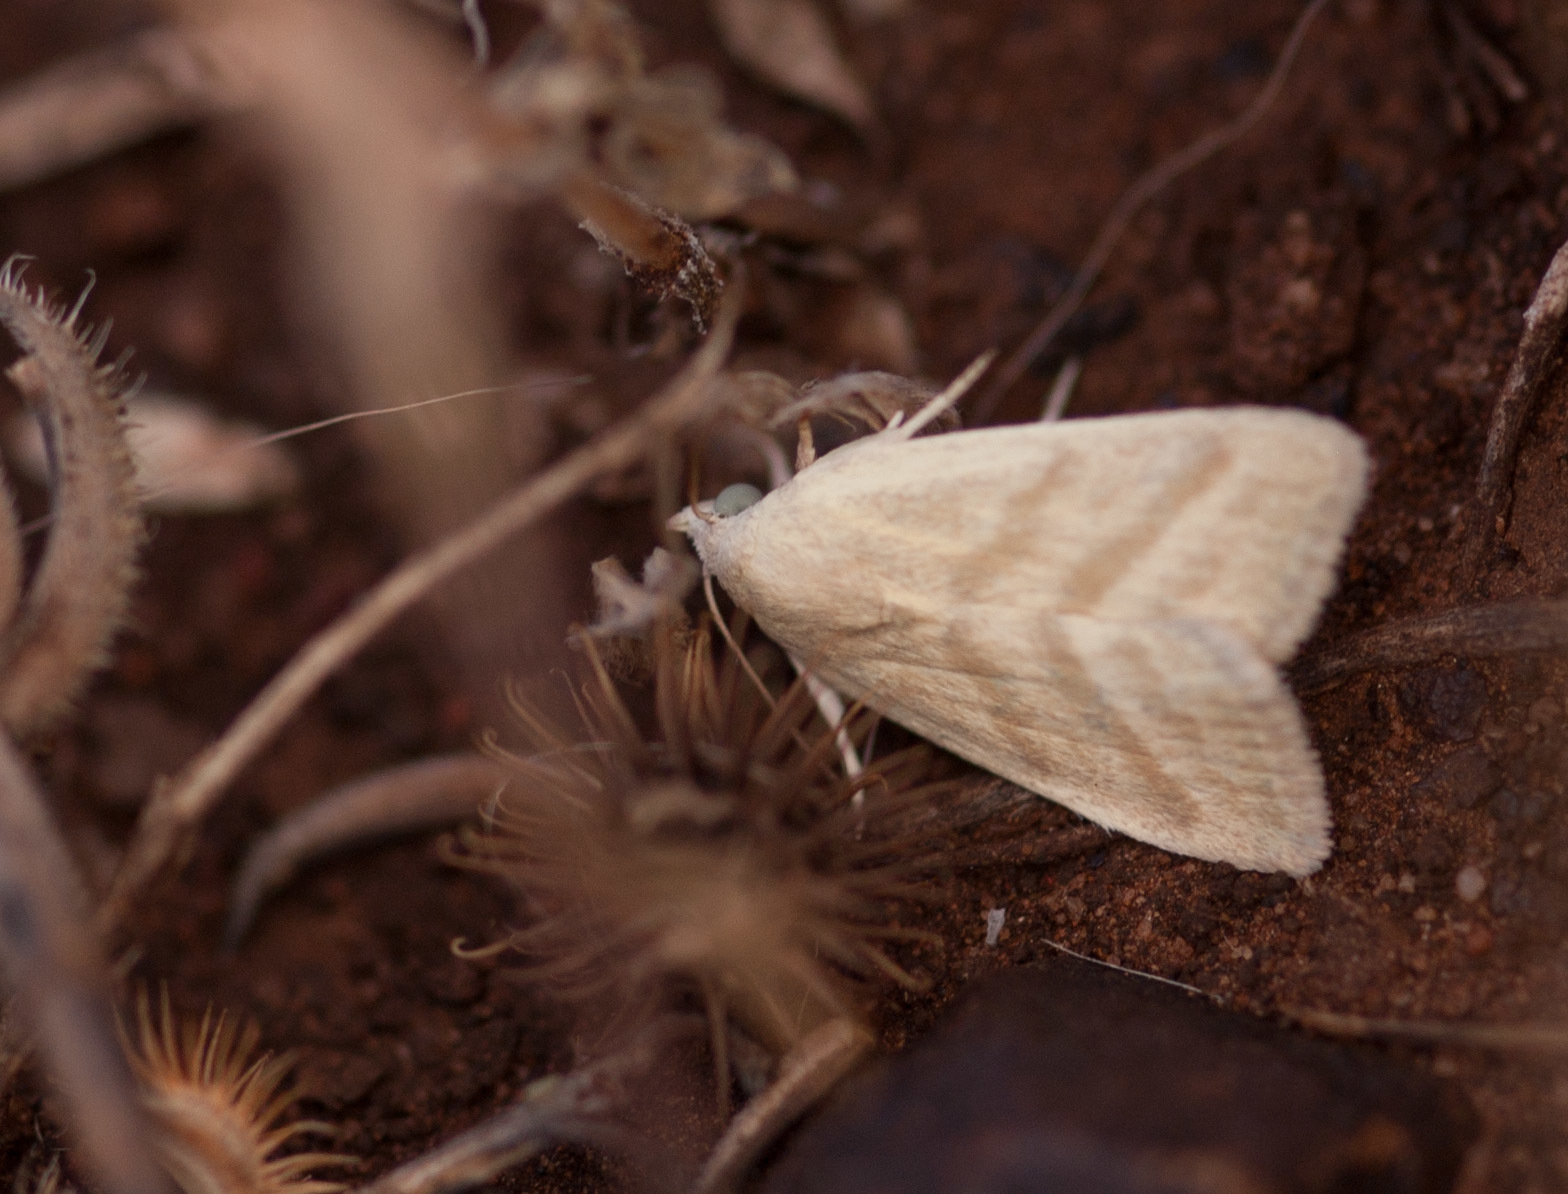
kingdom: Animalia
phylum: Arthropoda
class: Insecta
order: Lepidoptera
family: Nolidae
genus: Earias
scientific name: Earias paralella
